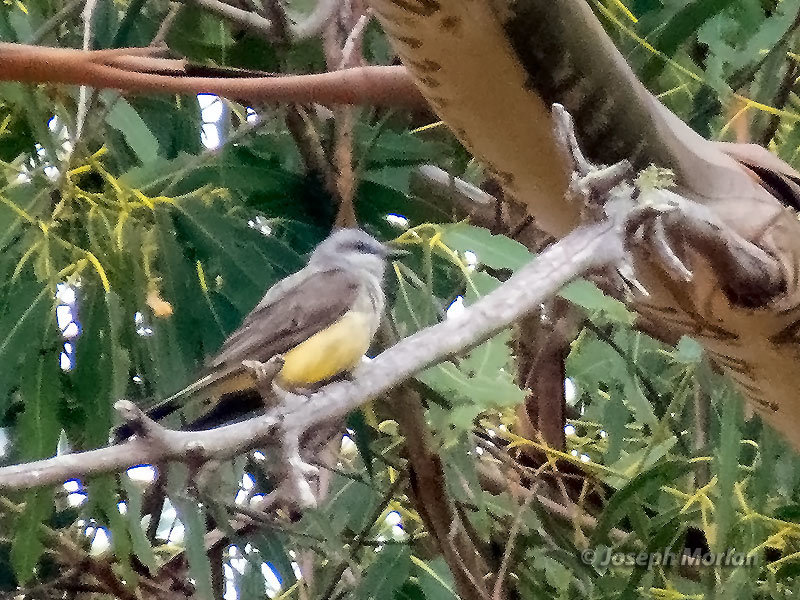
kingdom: Animalia
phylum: Chordata
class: Aves
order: Passeriformes
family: Tyrannidae
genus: Tyrannus
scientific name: Tyrannus verticalis
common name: Western kingbird
